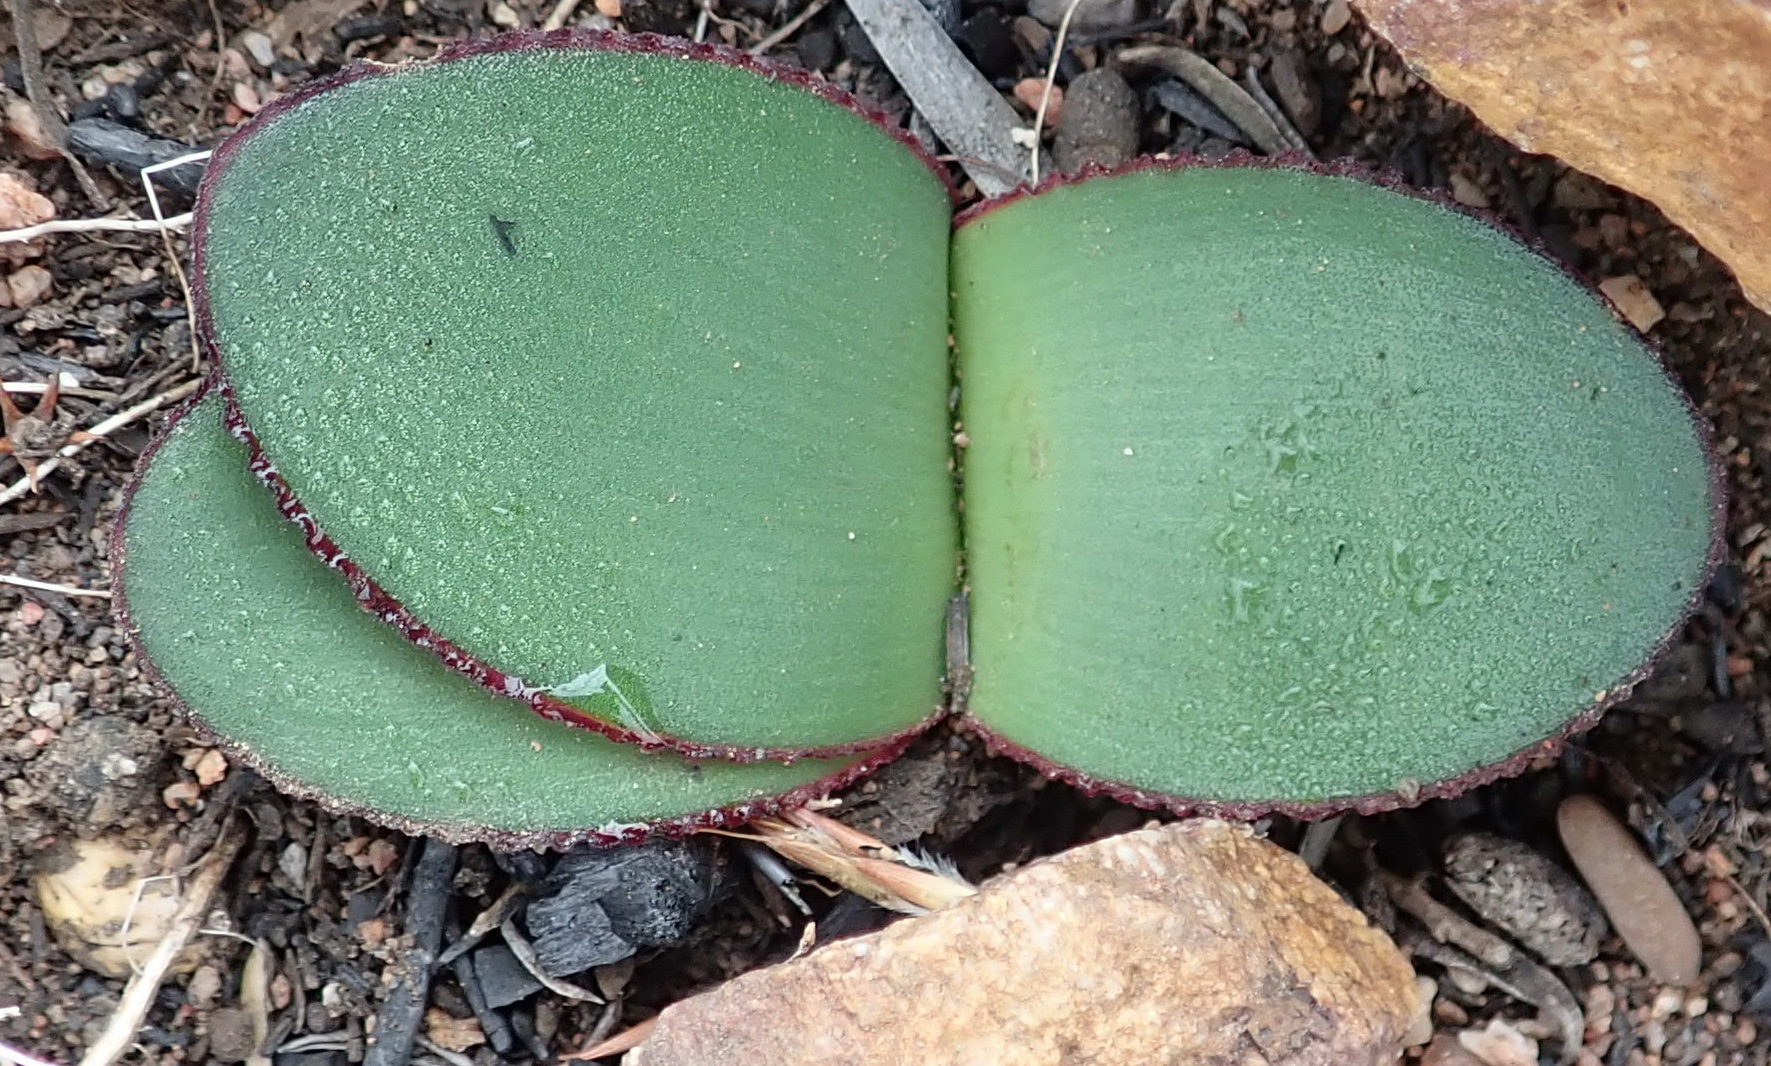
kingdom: Plantae
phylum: Tracheophyta
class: Liliopsida
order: Asparagales
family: Amaryllidaceae
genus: Brunsvigia
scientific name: Brunsvigia nervosa
